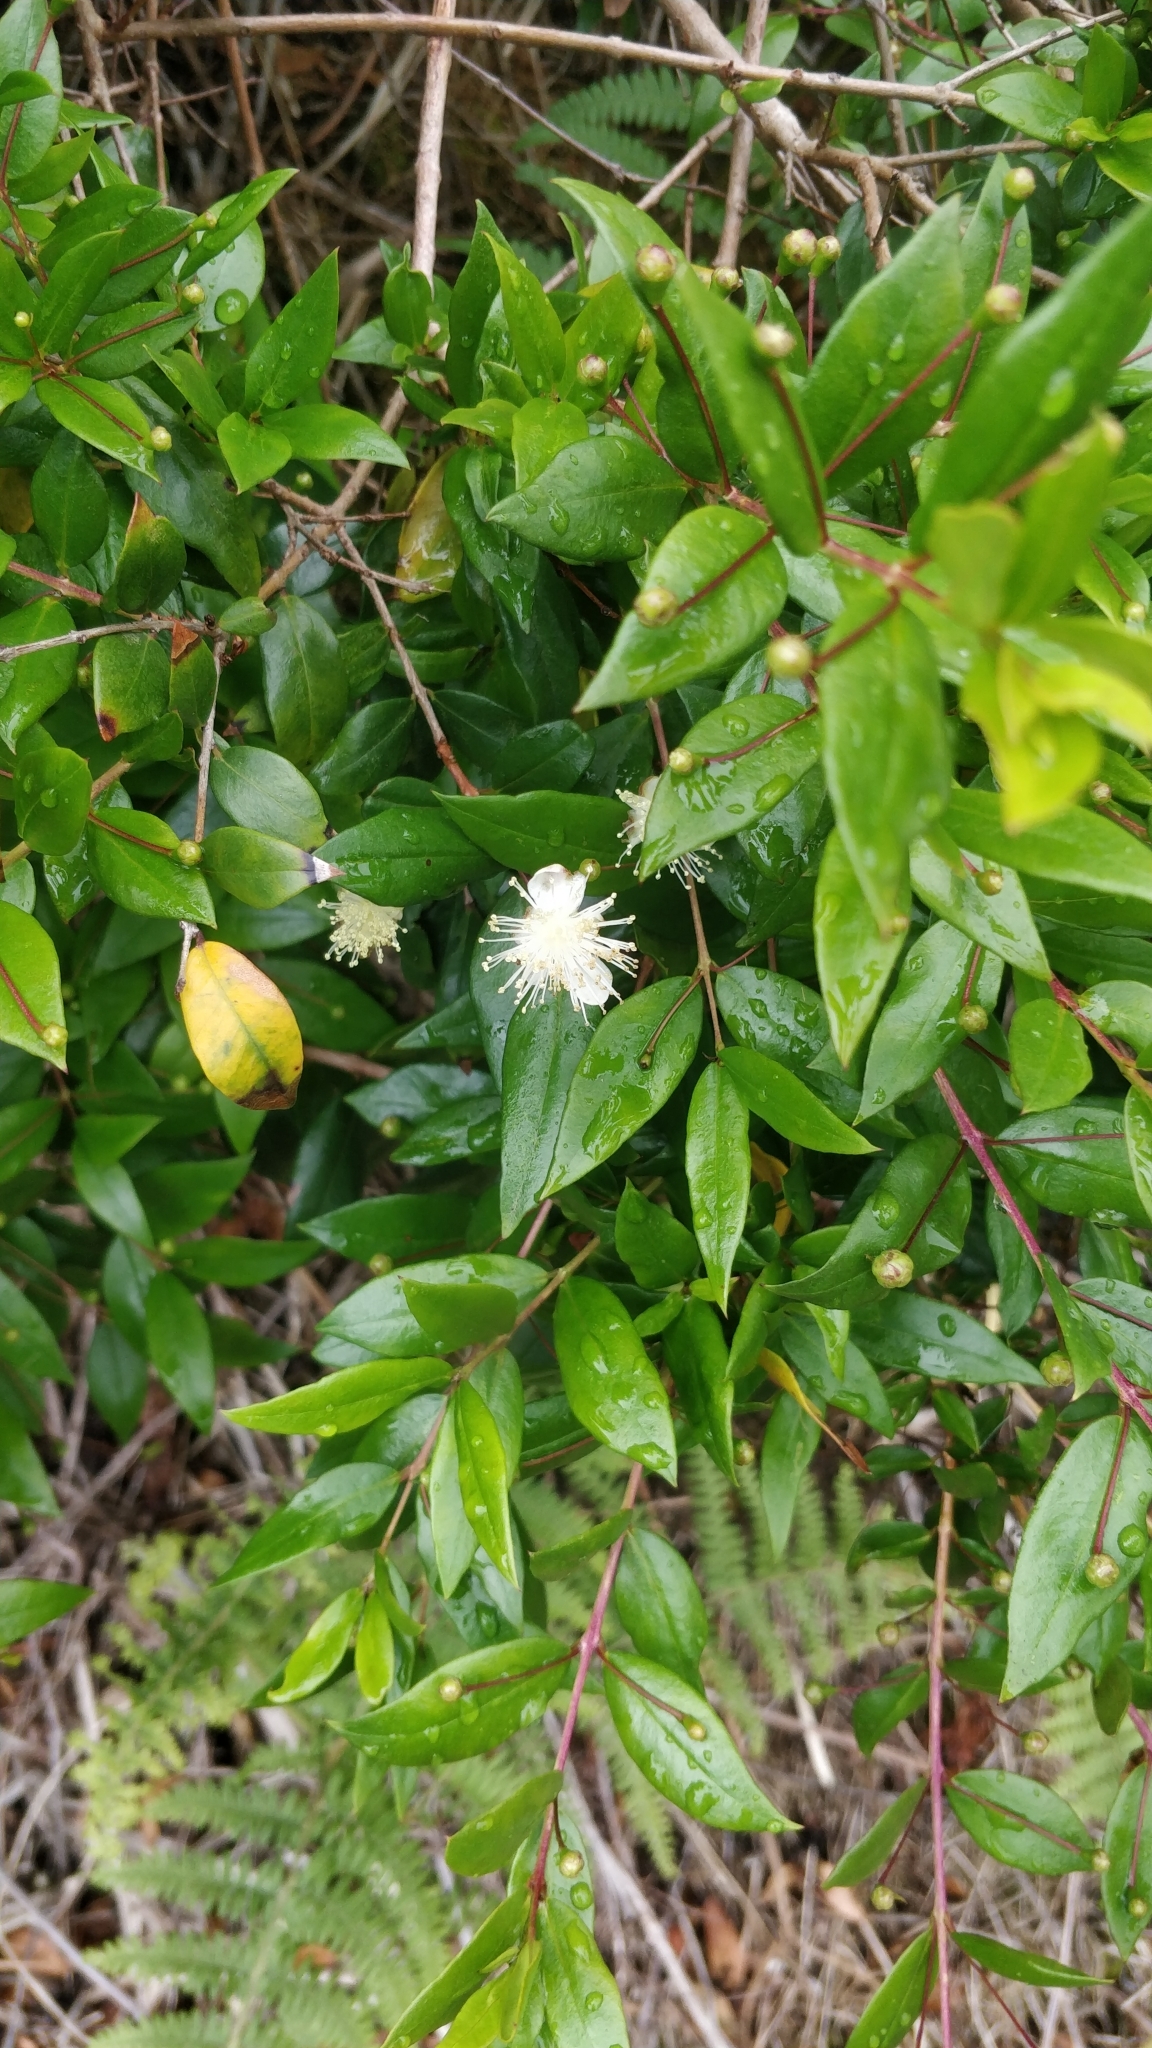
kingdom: Plantae
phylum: Tracheophyta
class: Magnoliopsida
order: Myrtales
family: Myrtaceae
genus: Myrtus
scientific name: Myrtus communis
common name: Myrtle
